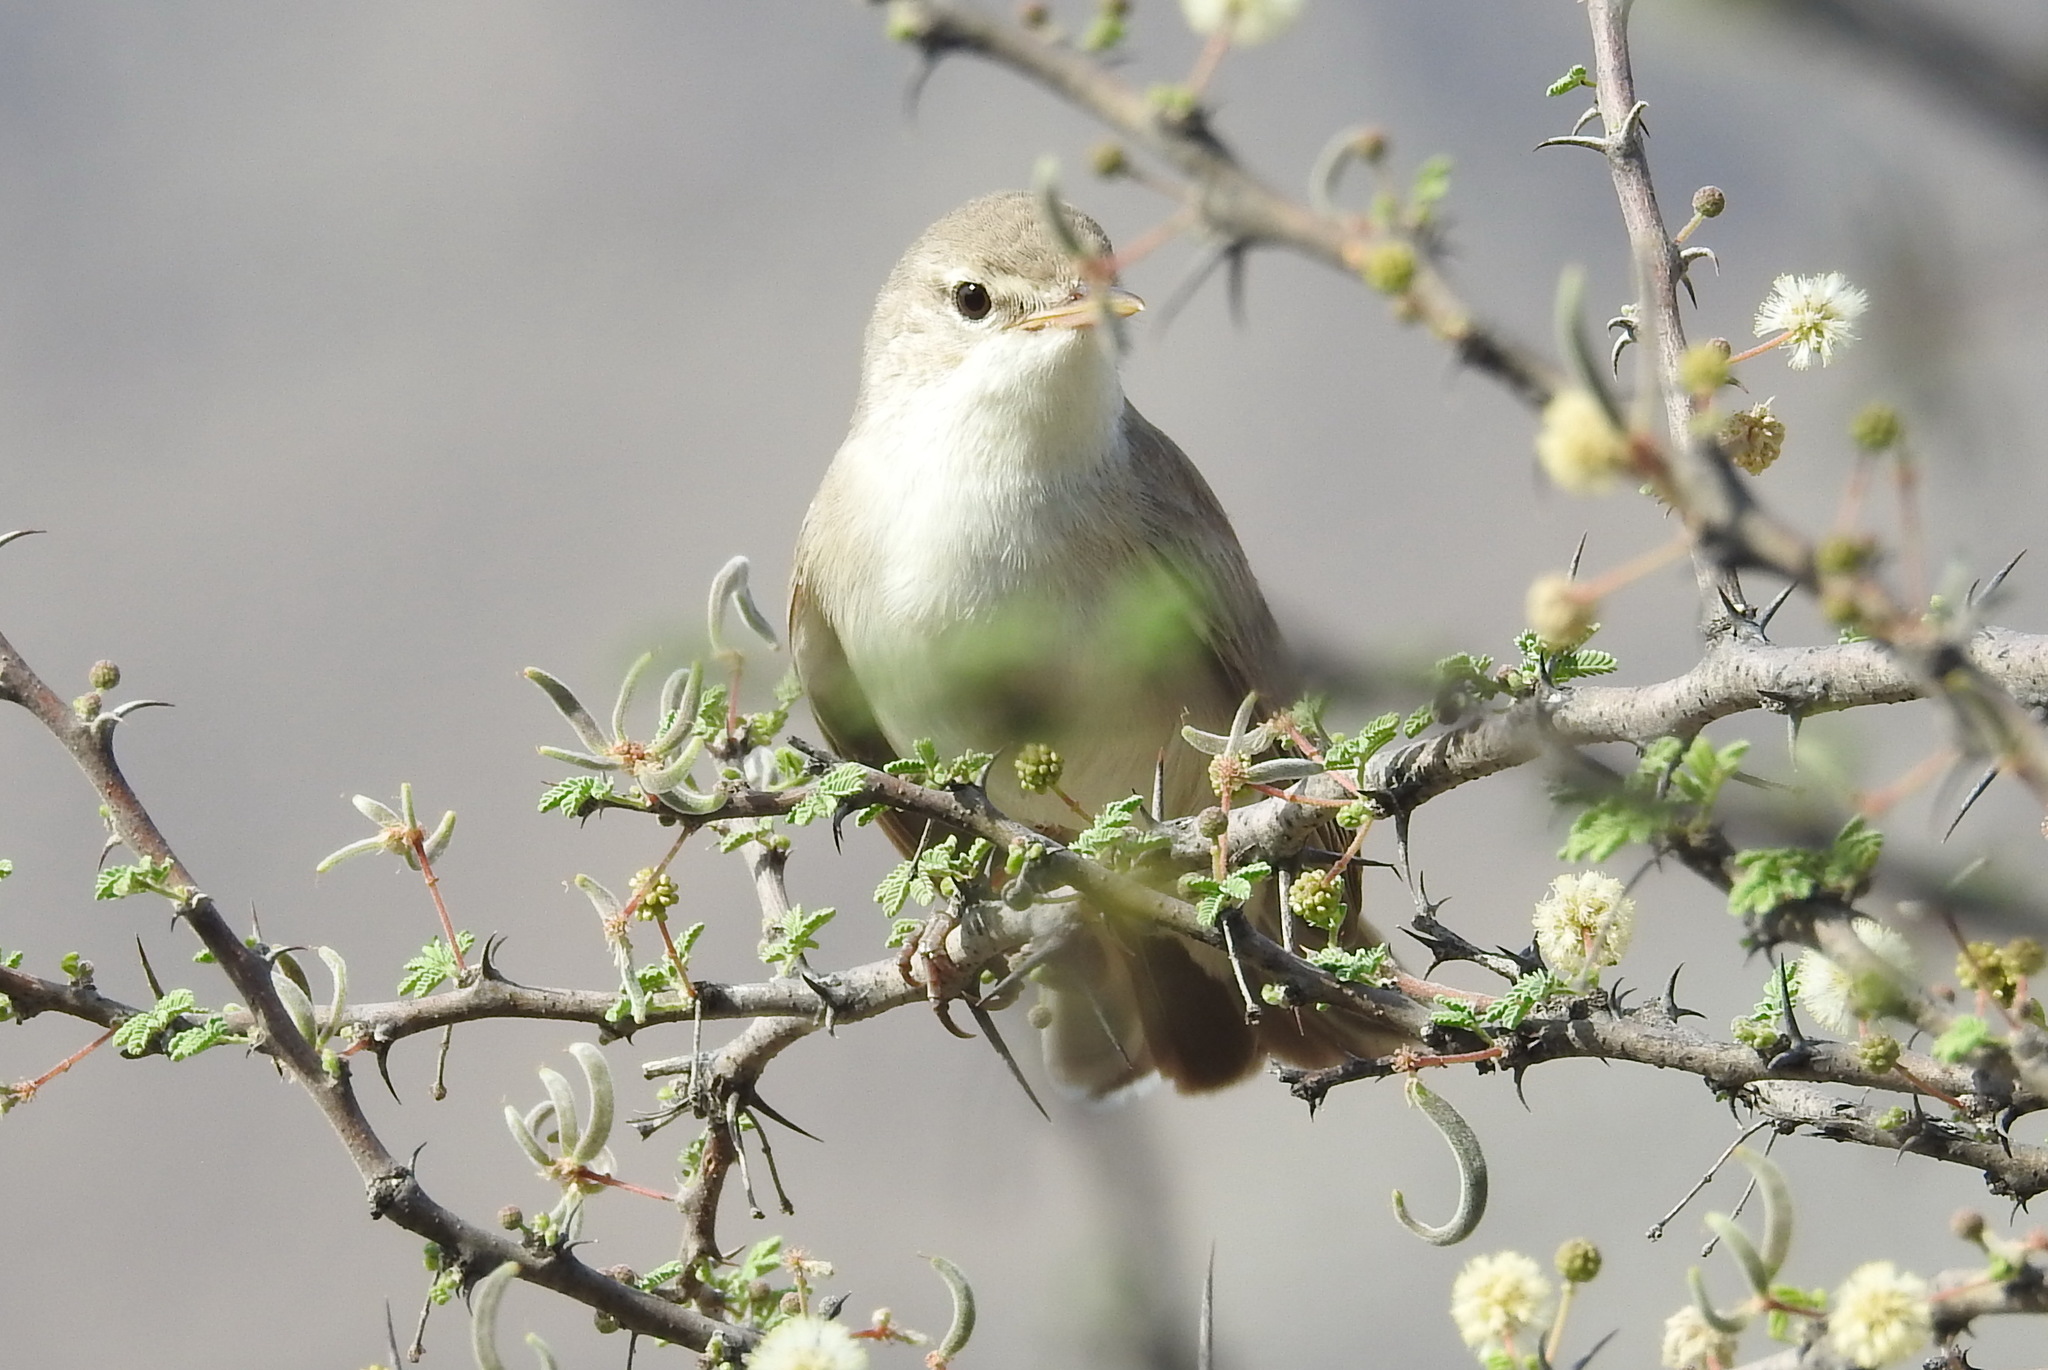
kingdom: Animalia
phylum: Chordata
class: Aves
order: Passeriformes
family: Acrocephalidae
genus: Iduna
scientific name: Iduna pallida
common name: Eastern olivaceous warbler
